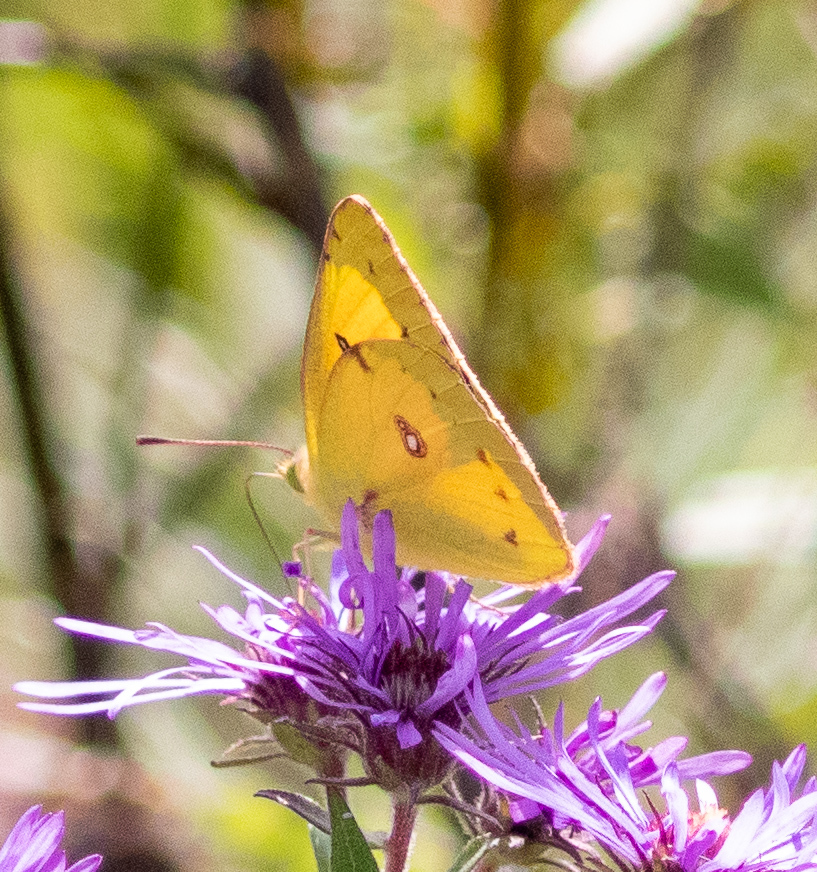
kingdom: Animalia
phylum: Arthropoda
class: Insecta
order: Lepidoptera
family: Pieridae
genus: Colias
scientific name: Colias eurytheme
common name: Alfalfa butterfly
